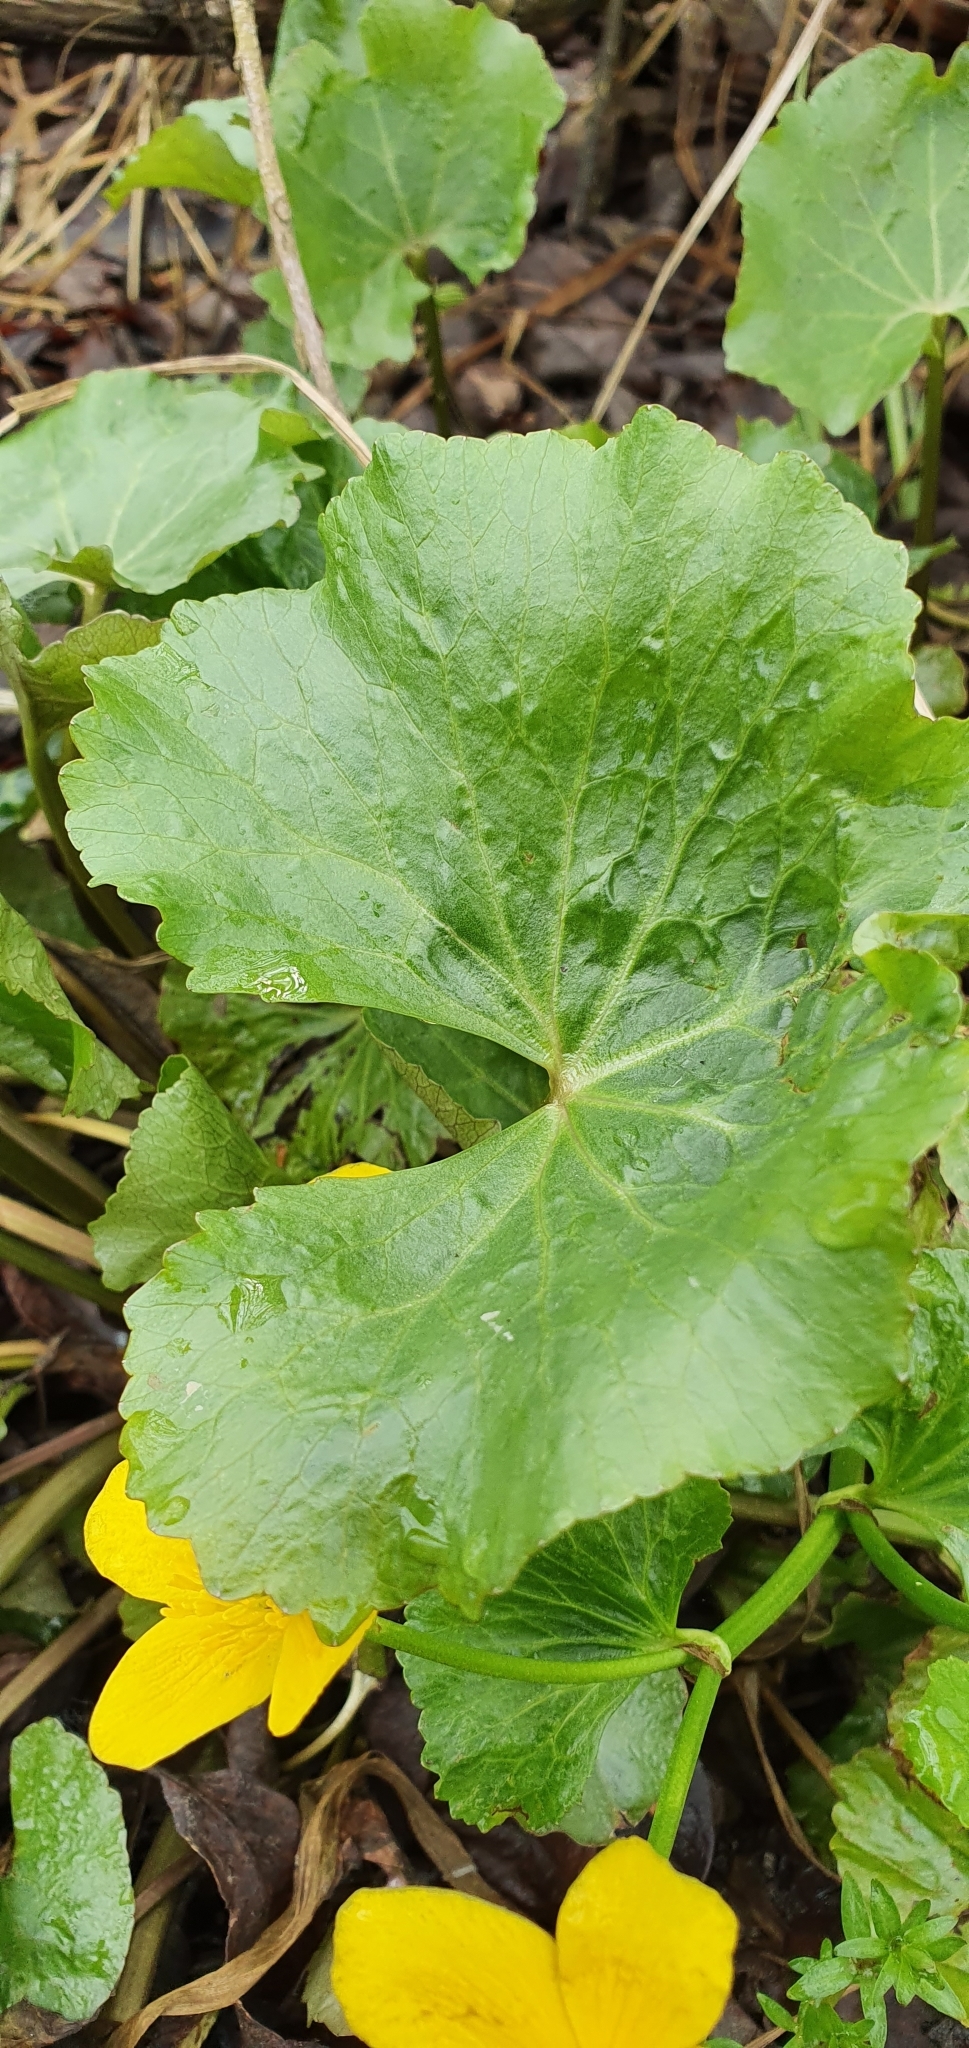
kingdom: Plantae
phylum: Tracheophyta
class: Magnoliopsida
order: Ranunculales
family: Ranunculaceae
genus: Caltha
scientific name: Caltha palustris
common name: Marsh marigold
